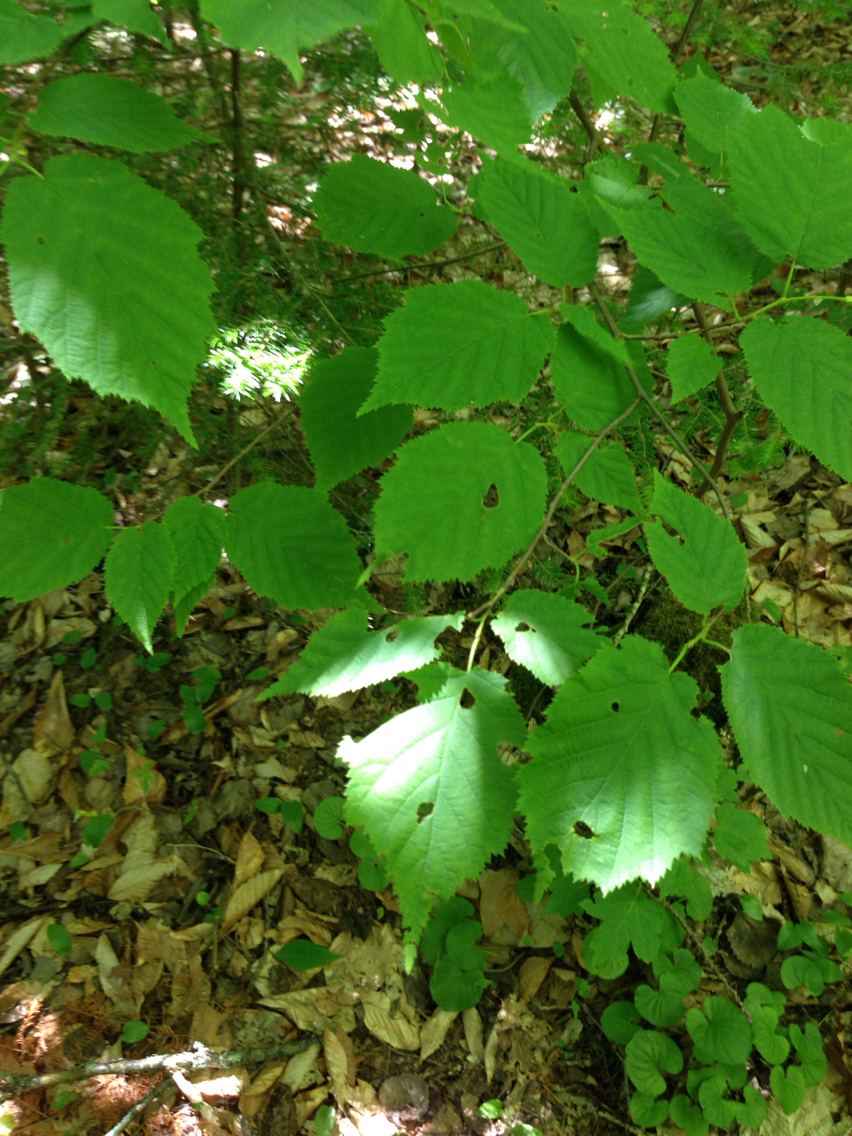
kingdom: Plantae
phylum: Tracheophyta
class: Magnoliopsida
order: Fagales
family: Betulaceae
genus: Corylus
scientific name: Corylus cornuta
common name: Beaked hazel
